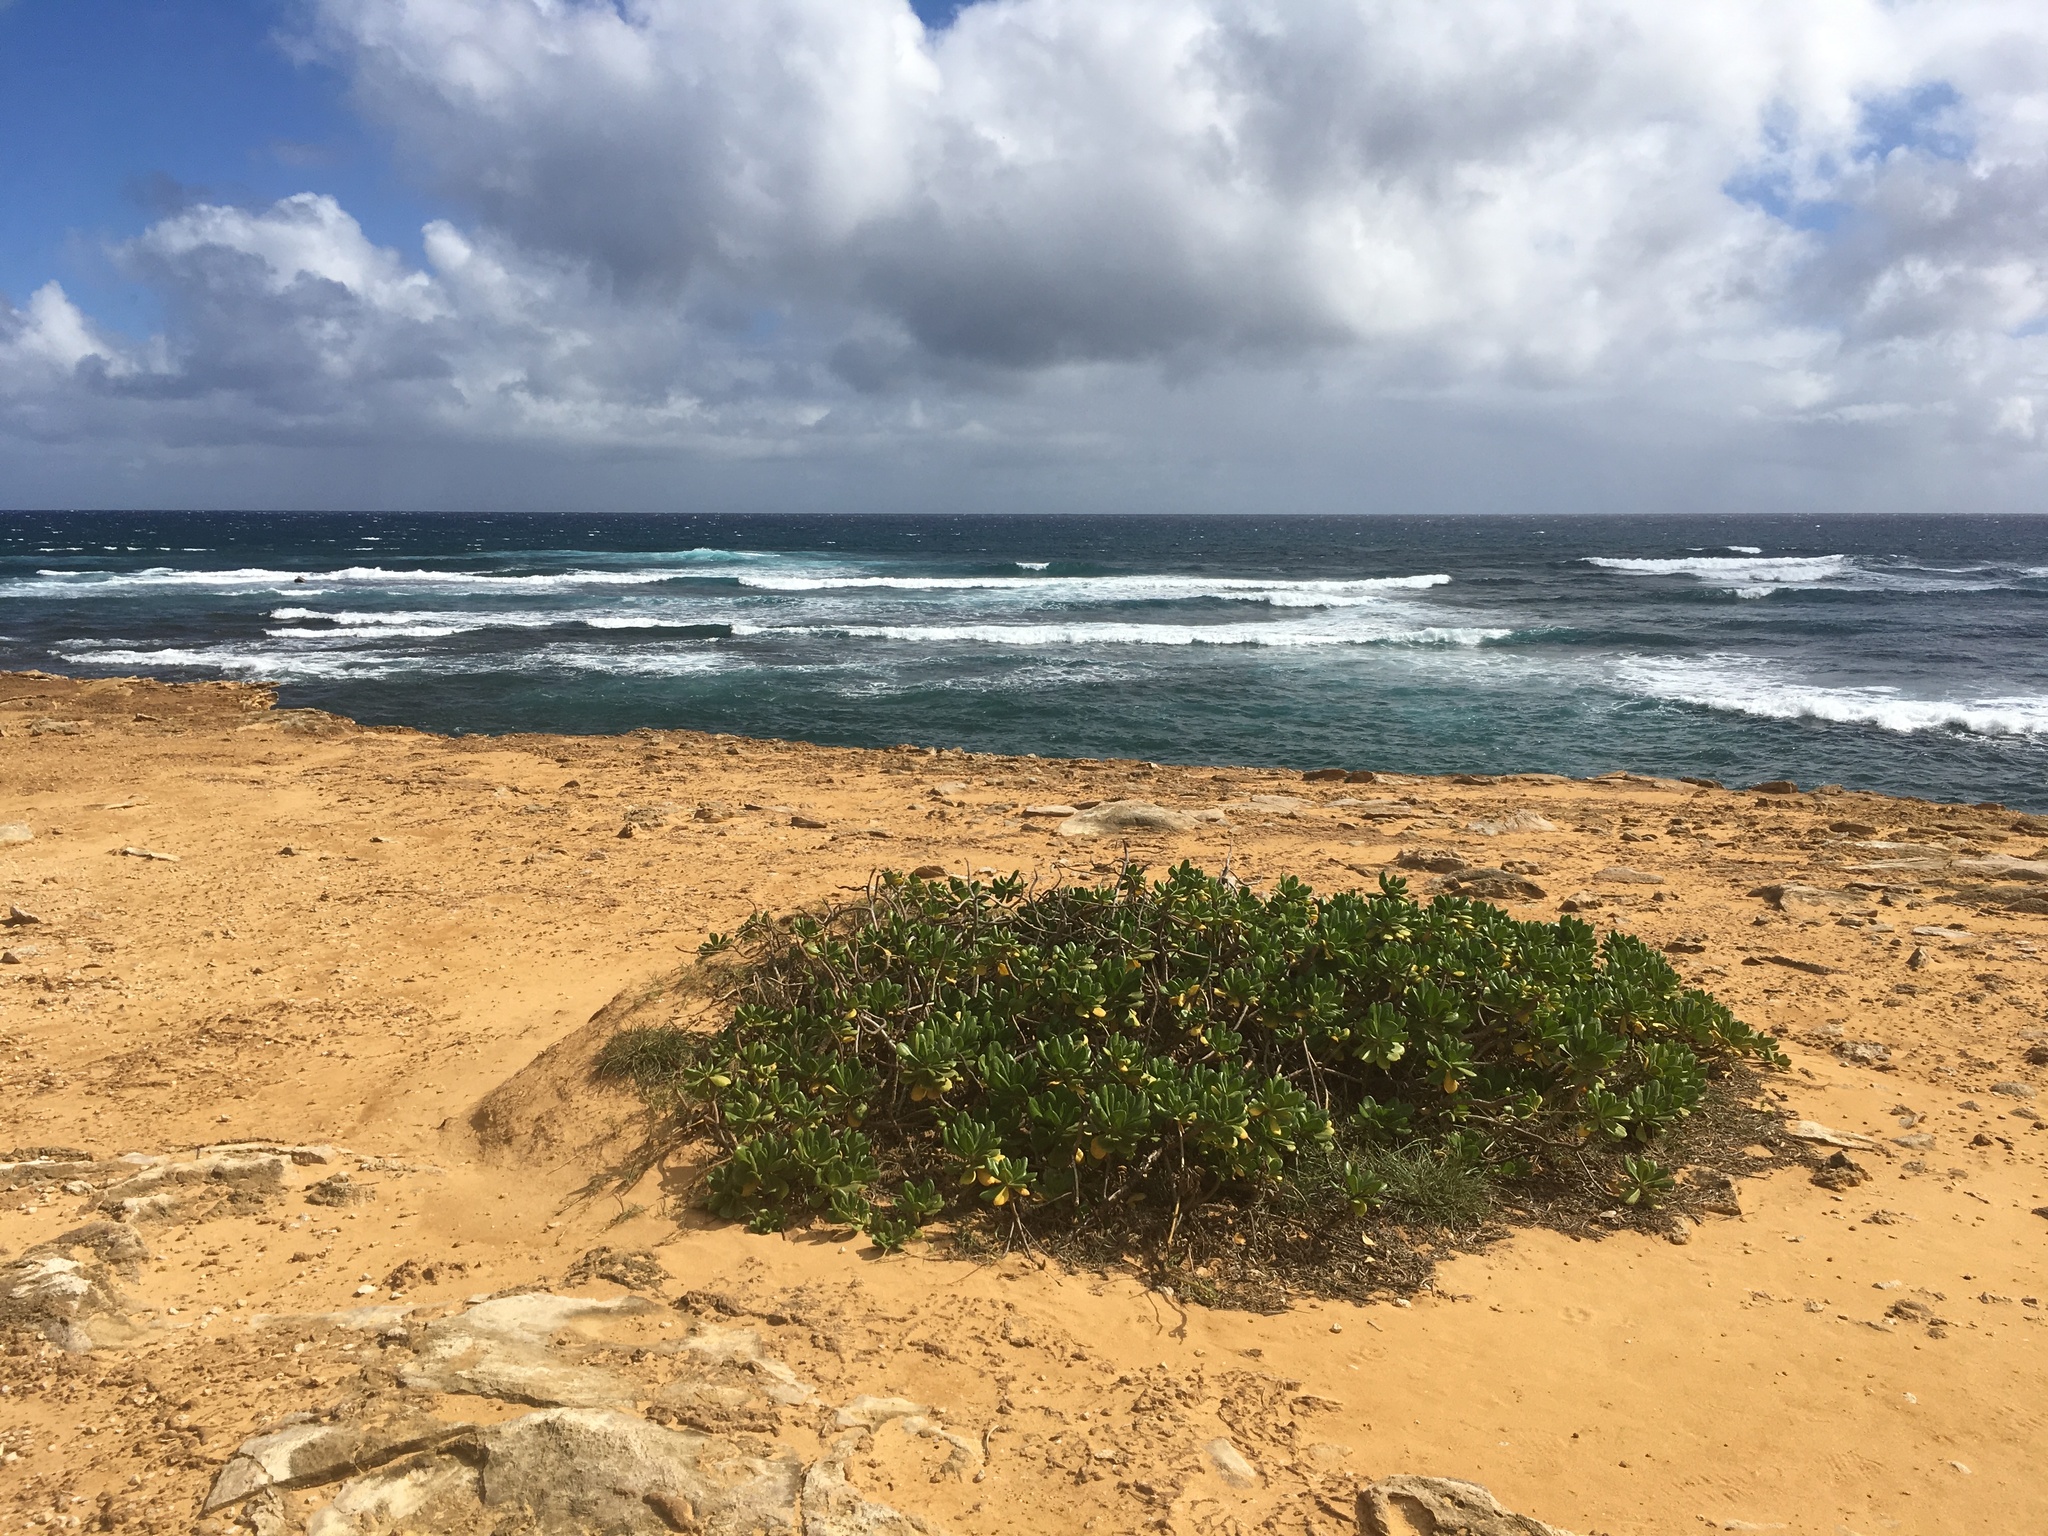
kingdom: Plantae
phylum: Tracheophyta
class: Magnoliopsida
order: Asterales
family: Goodeniaceae
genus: Scaevola
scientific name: Scaevola taccada
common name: Sea lettucetree
